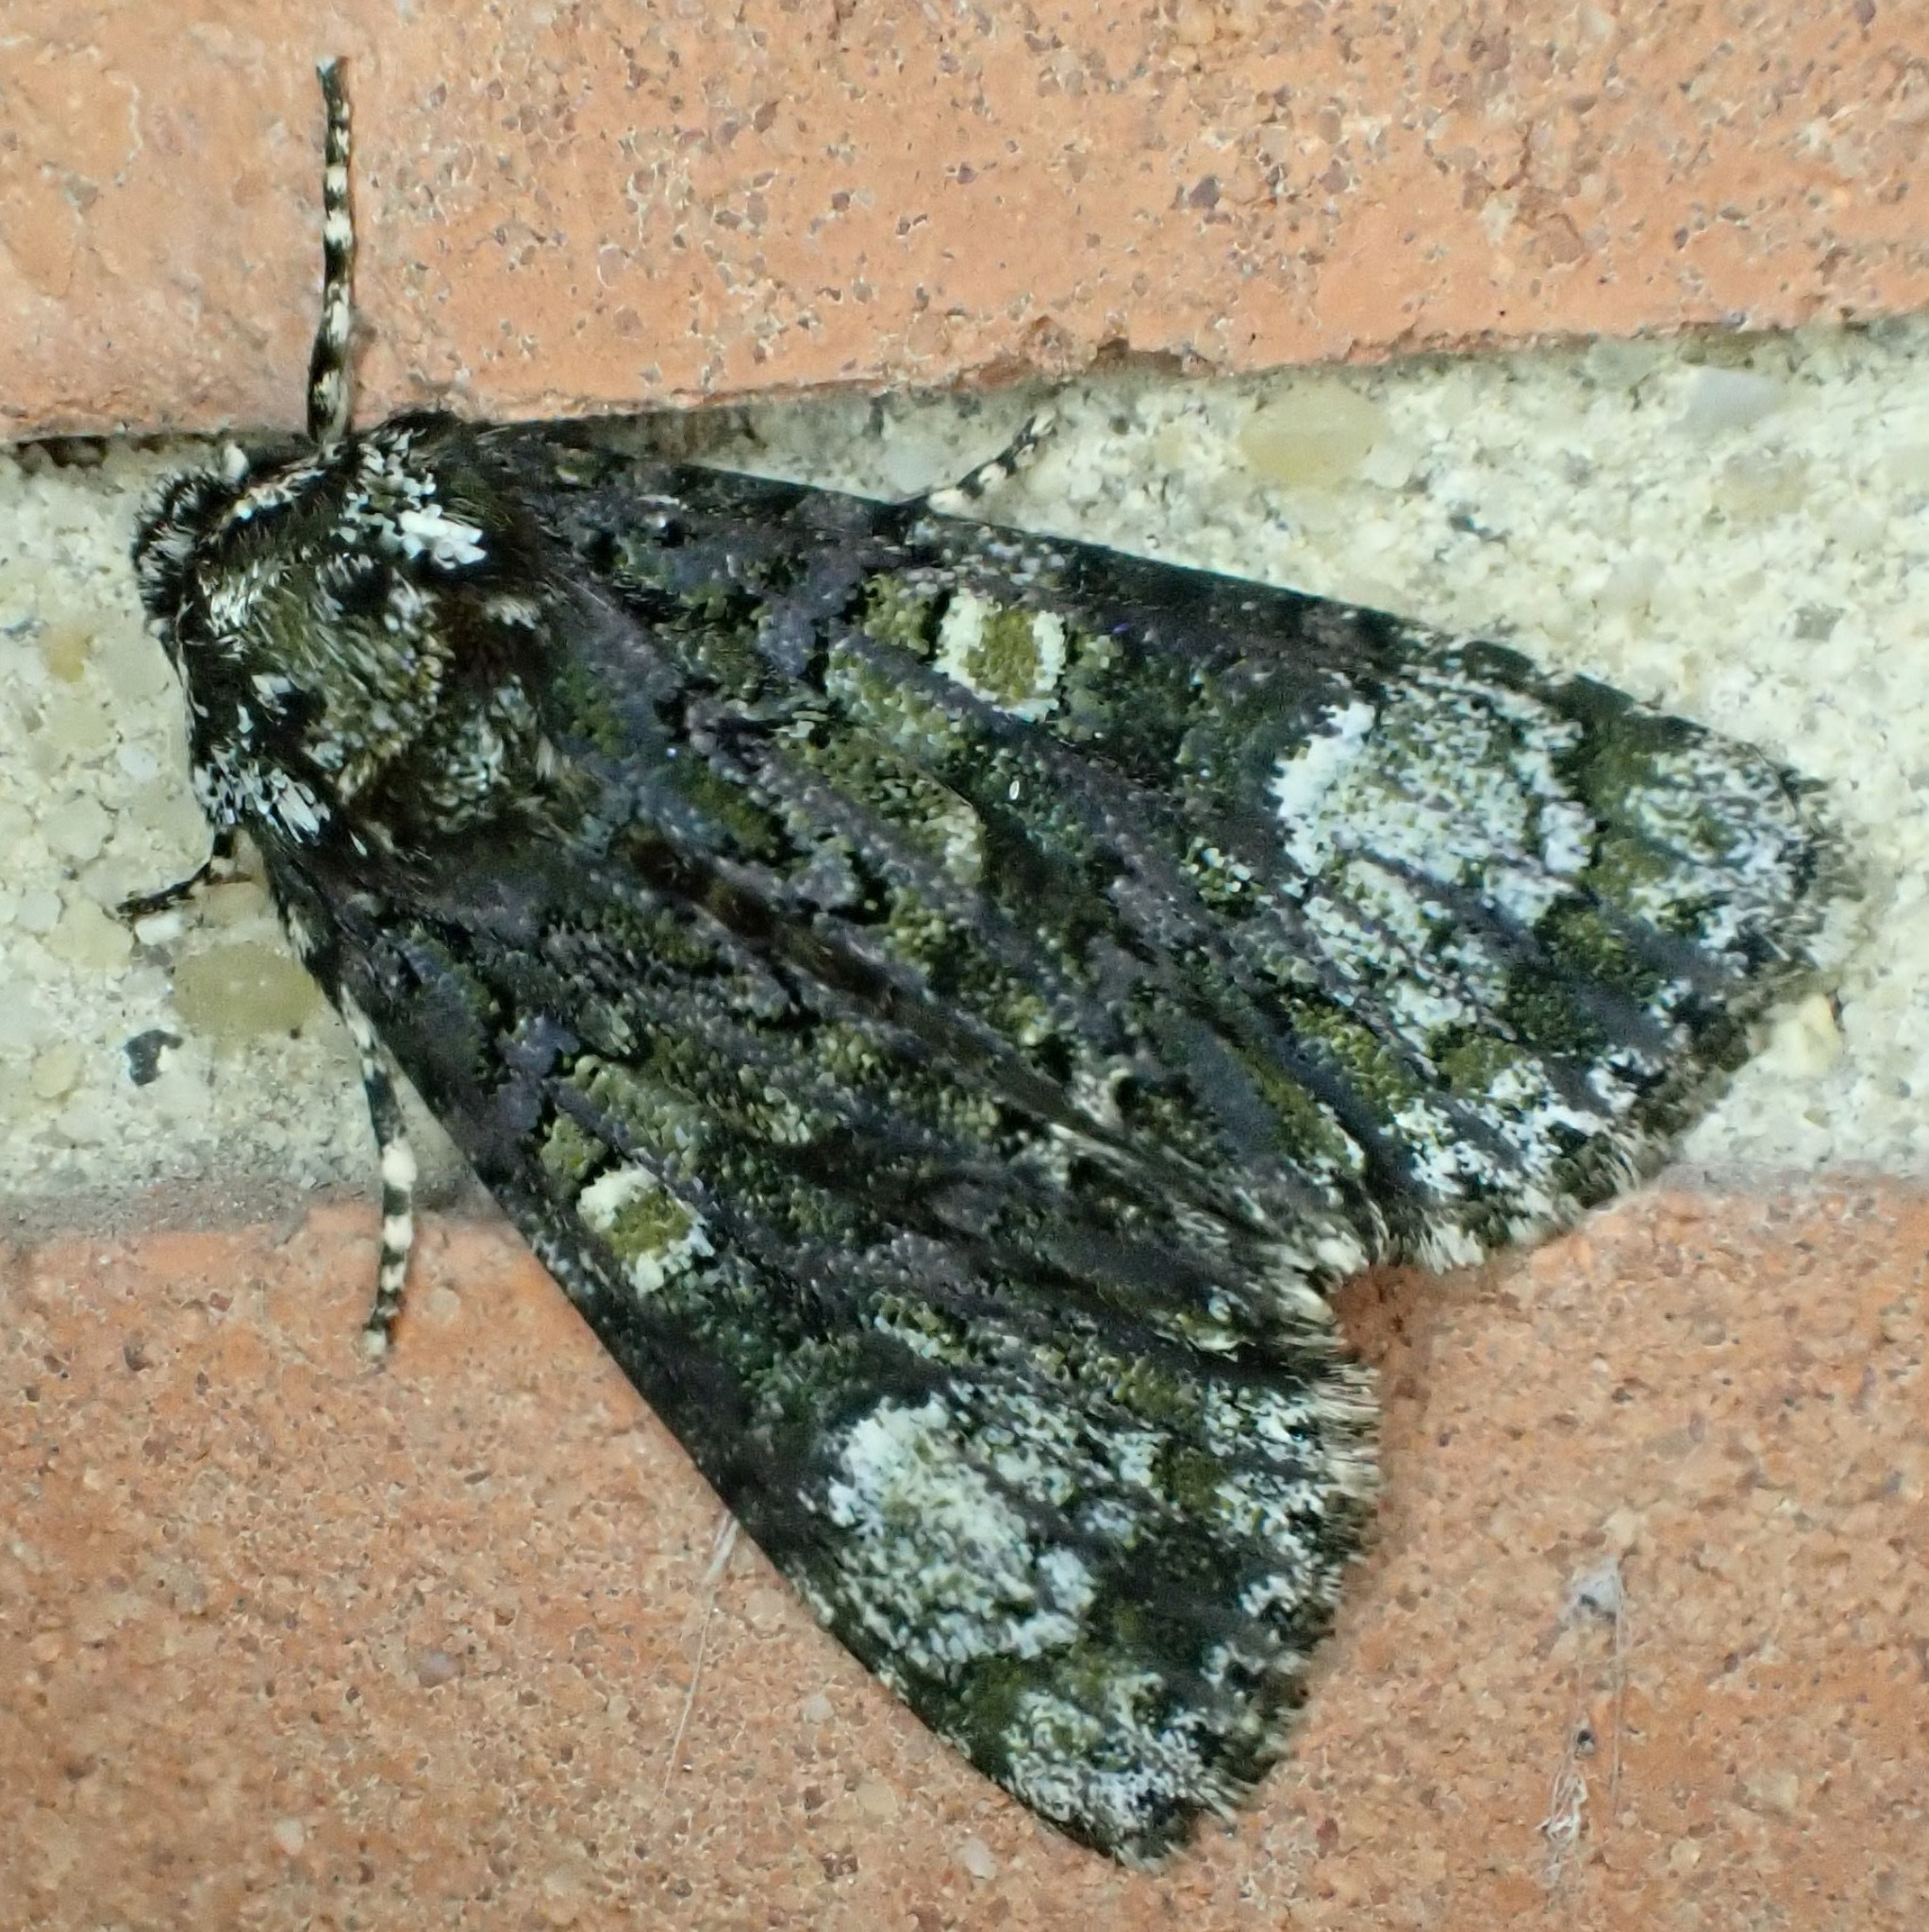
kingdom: Animalia
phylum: Arthropoda
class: Insecta
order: Lepidoptera
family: Noctuidae
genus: Craniophora
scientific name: Craniophora ligustri
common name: Coronet
